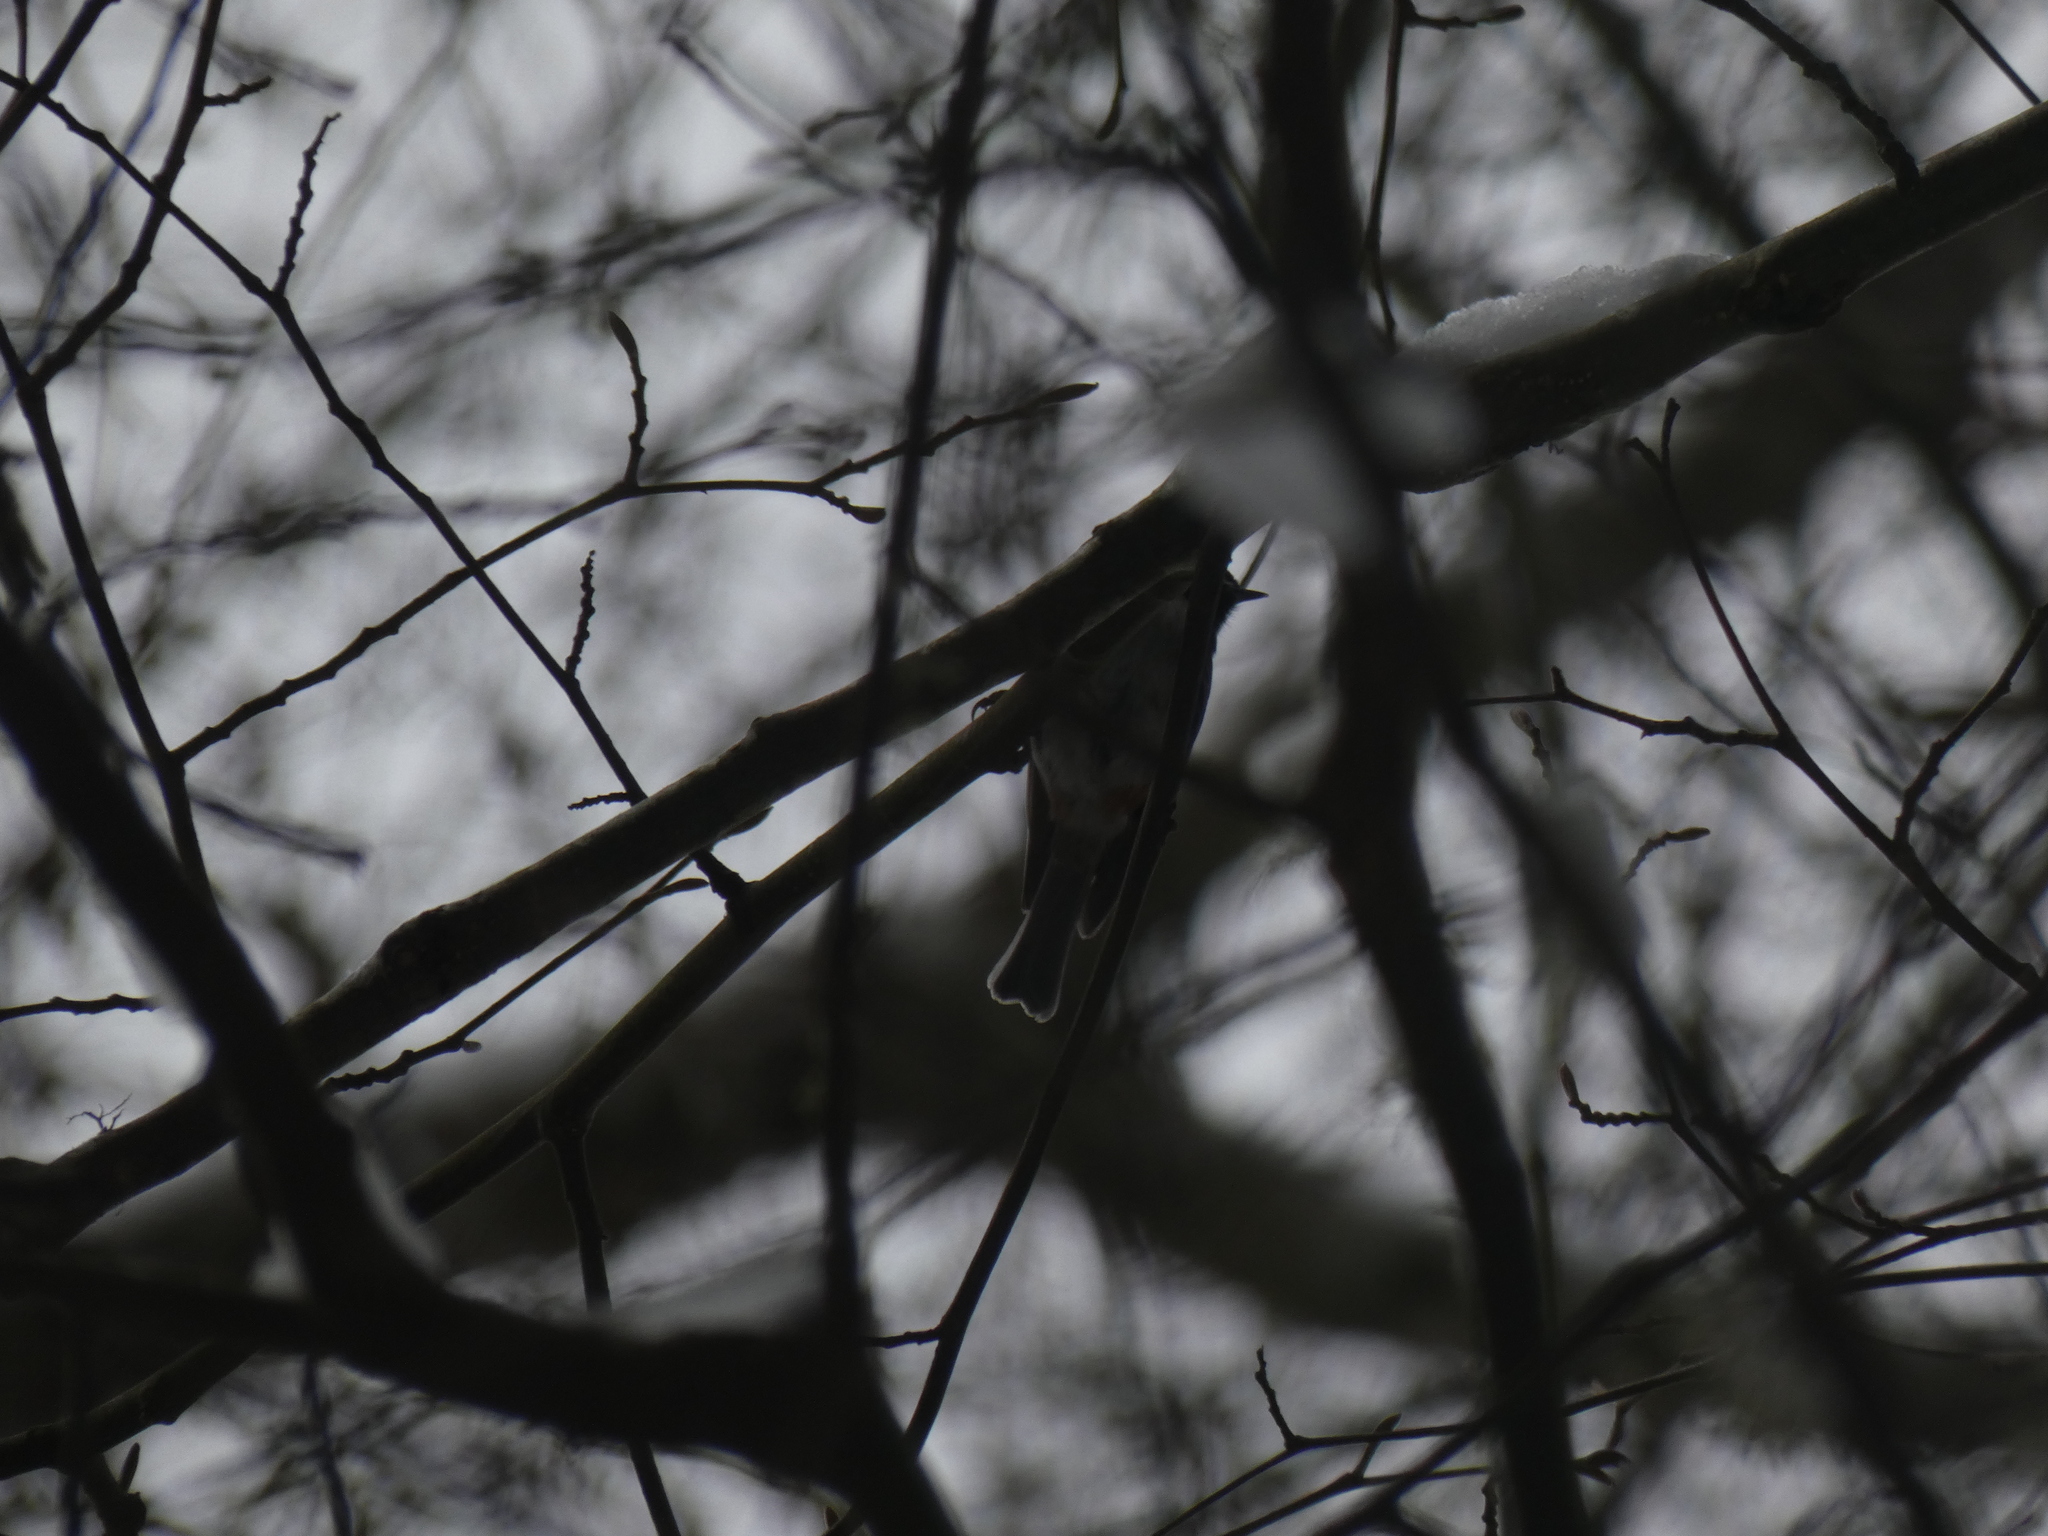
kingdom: Animalia
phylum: Chordata
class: Aves
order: Passeriformes
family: Paridae
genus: Poecile
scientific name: Poecile atricapillus
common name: Black-capped chickadee
